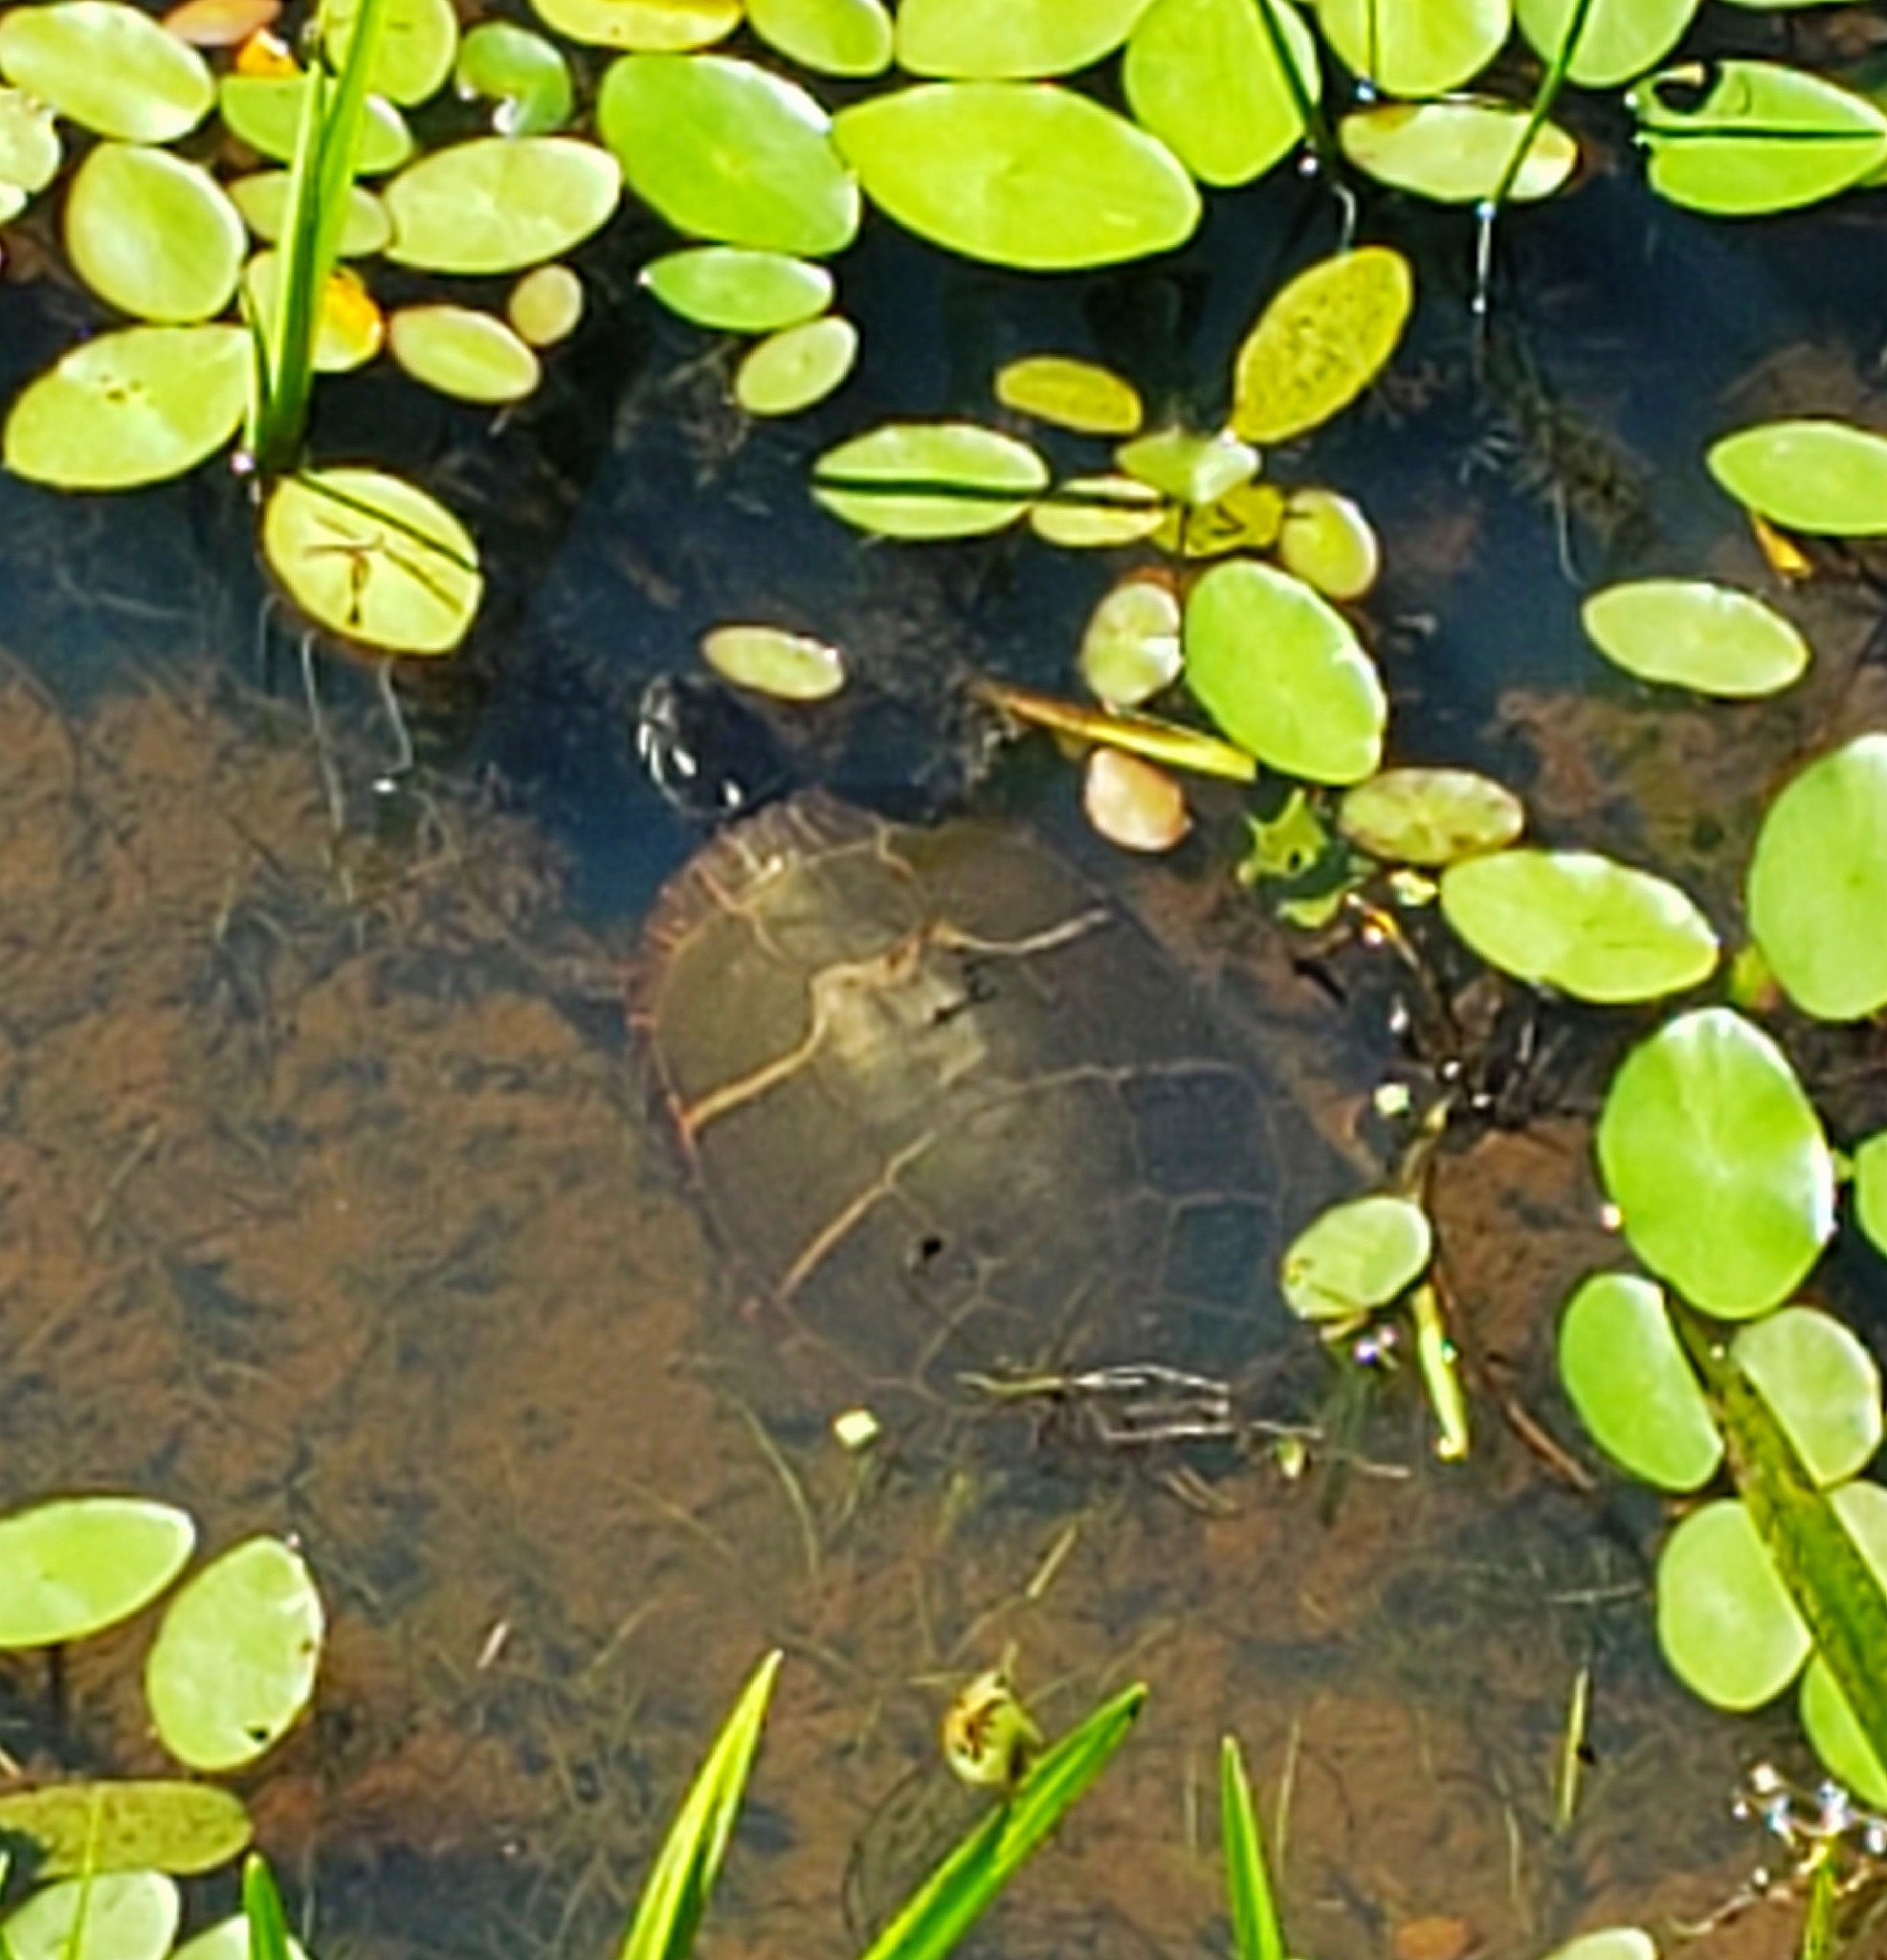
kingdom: Animalia
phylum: Chordata
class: Testudines
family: Emydidae
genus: Chrysemys
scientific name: Chrysemys picta
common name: Painted turtle
